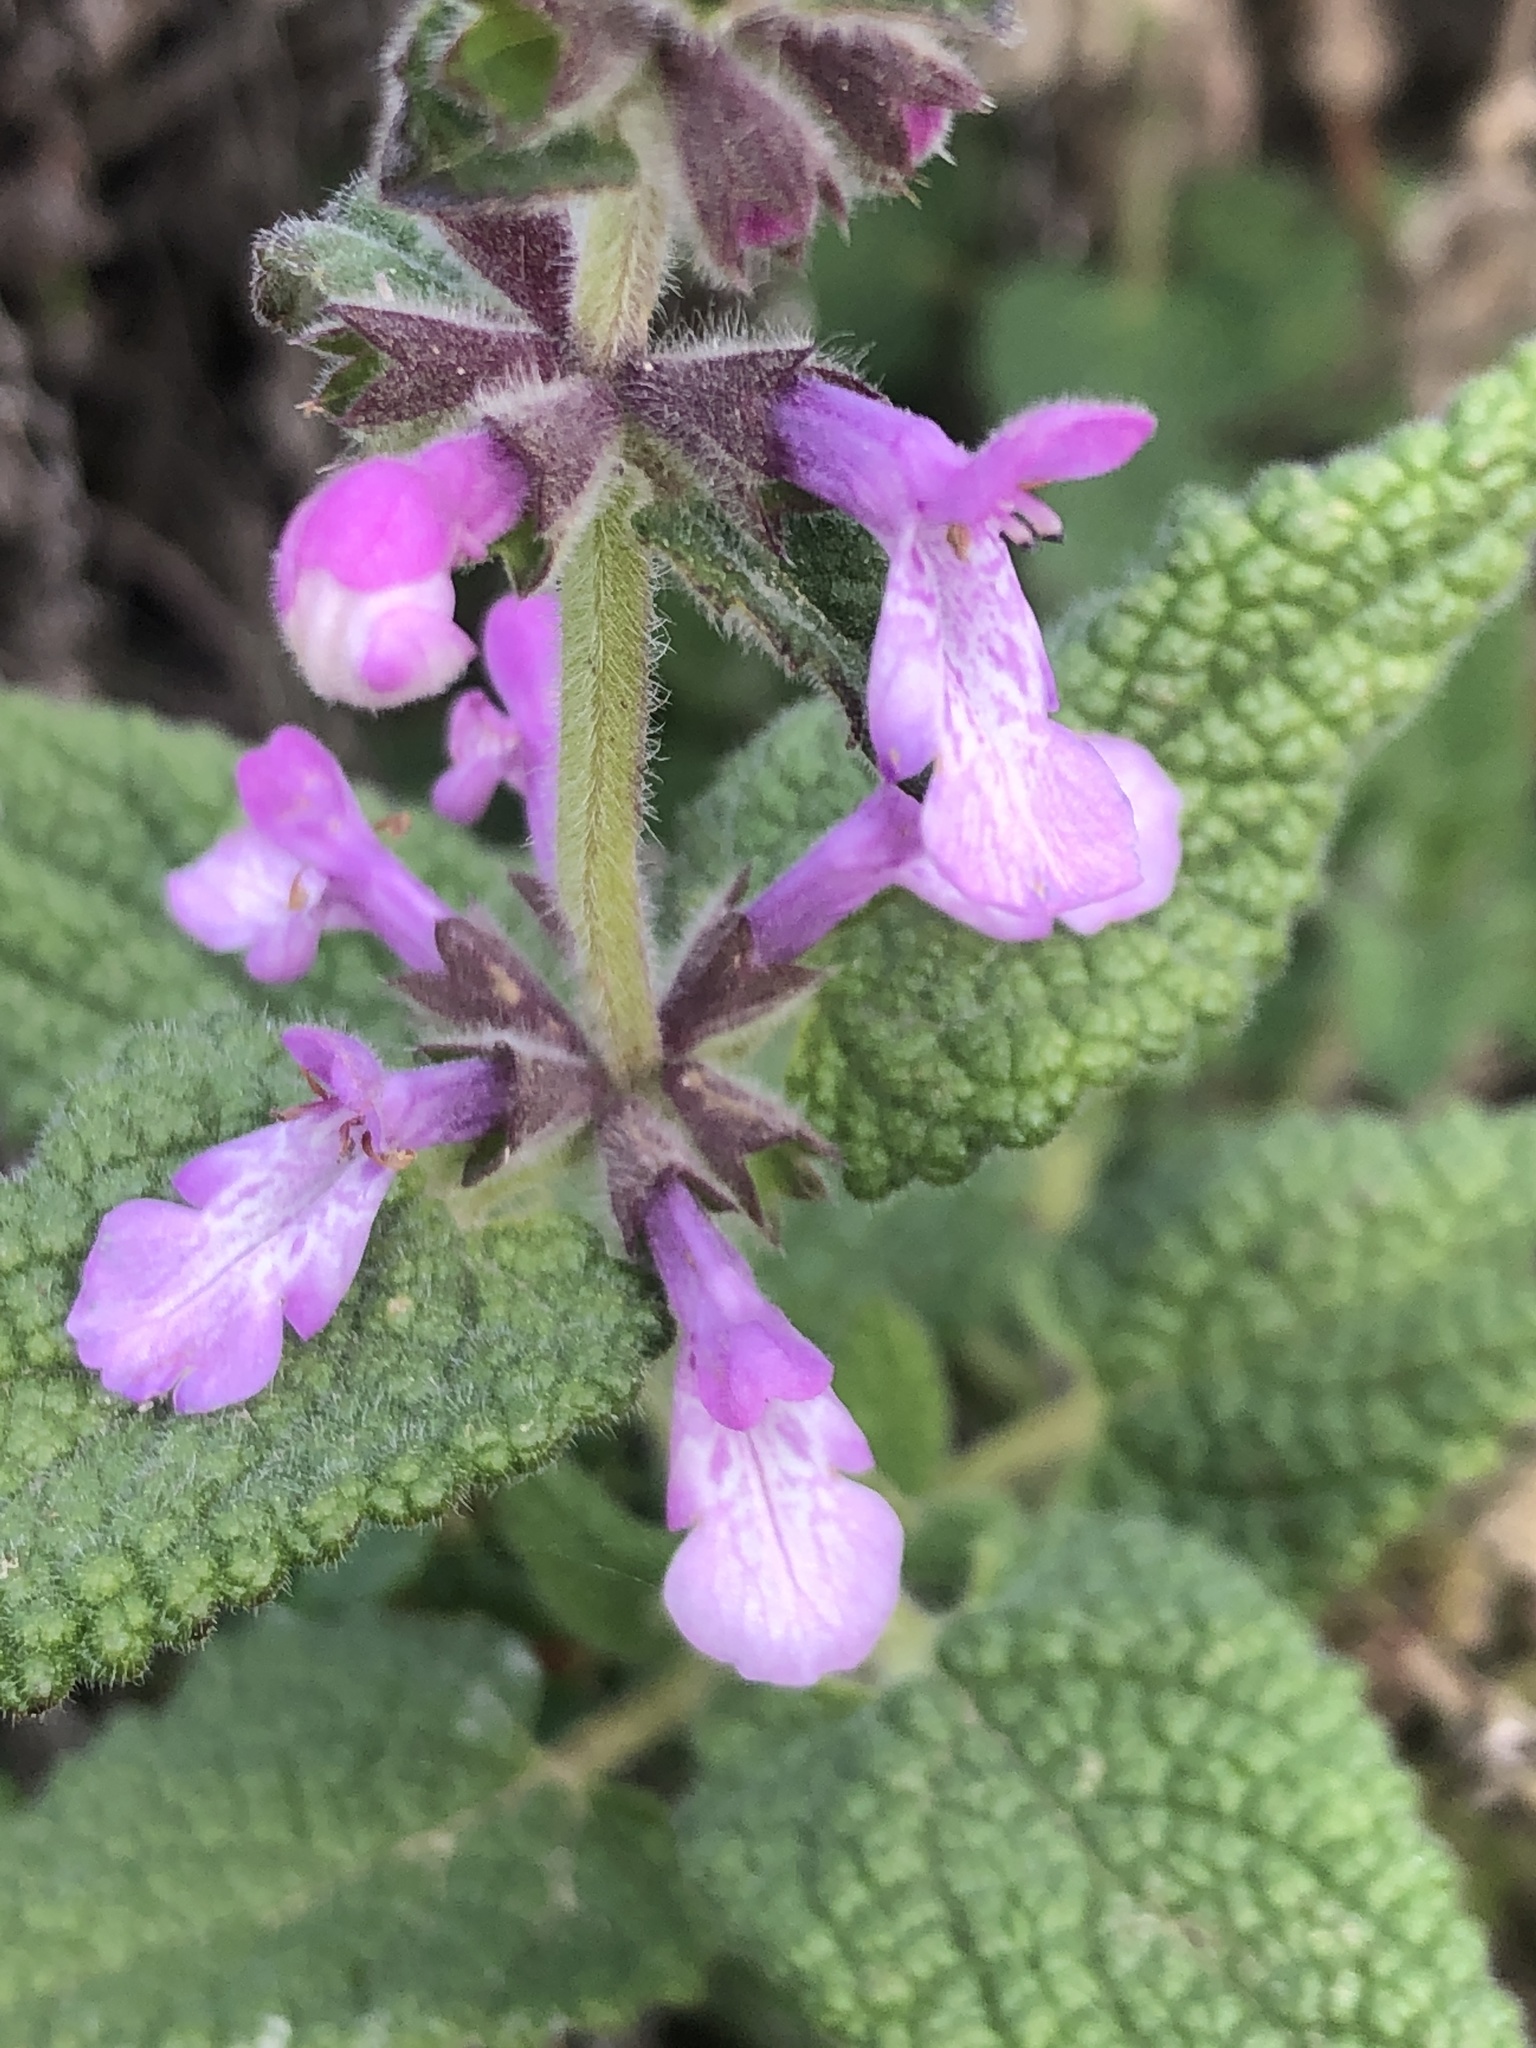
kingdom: Plantae
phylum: Tracheophyta
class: Magnoliopsida
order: Lamiales
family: Lamiaceae
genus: Stachys
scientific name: Stachys bullata
